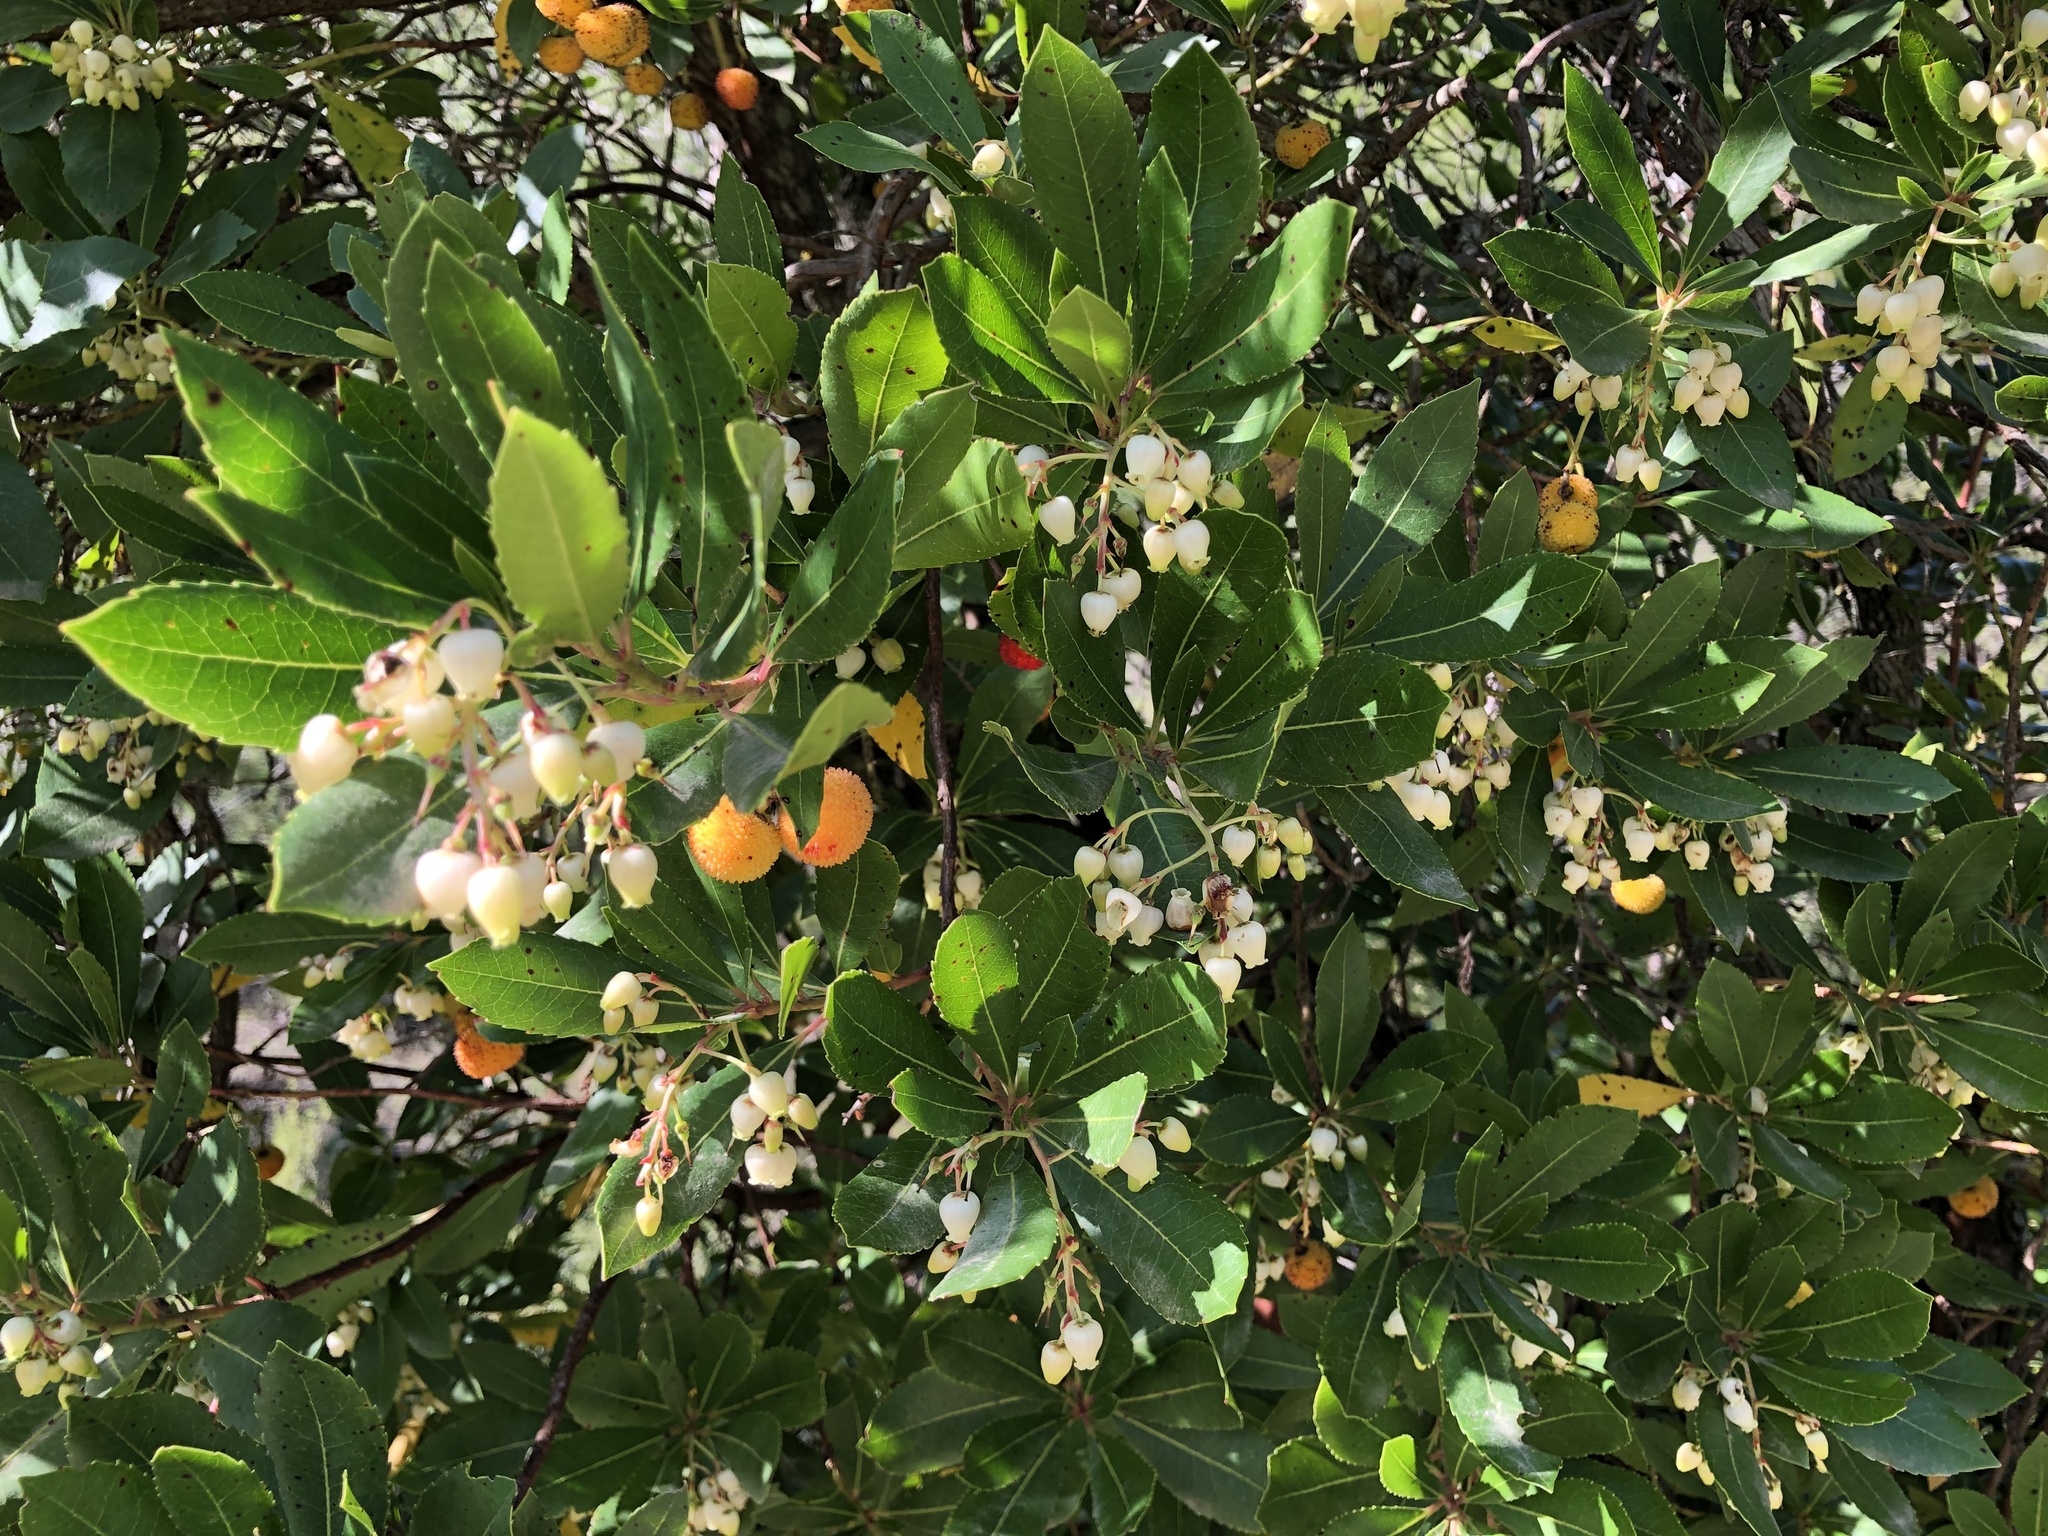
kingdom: Plantae
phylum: Tracheophyta
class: Magnoliopsida
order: Ericales
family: Ericaceae
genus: Arbutus
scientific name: Arbutus unedo
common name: Strawberry-tree
